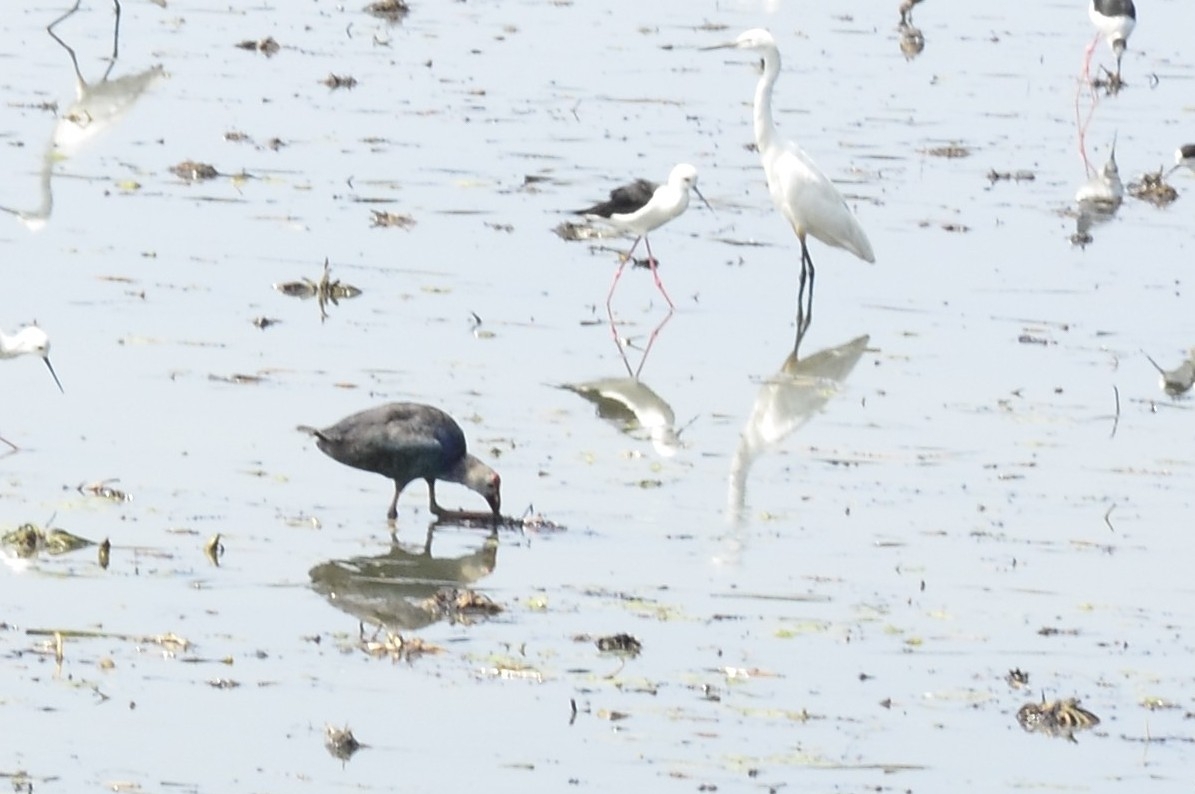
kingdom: Animalia
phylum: Chordata
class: Aves
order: Gruiformes
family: Rallidae
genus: Porphyrio
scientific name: Porphyrio porphyrio
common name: Purple swamphen
